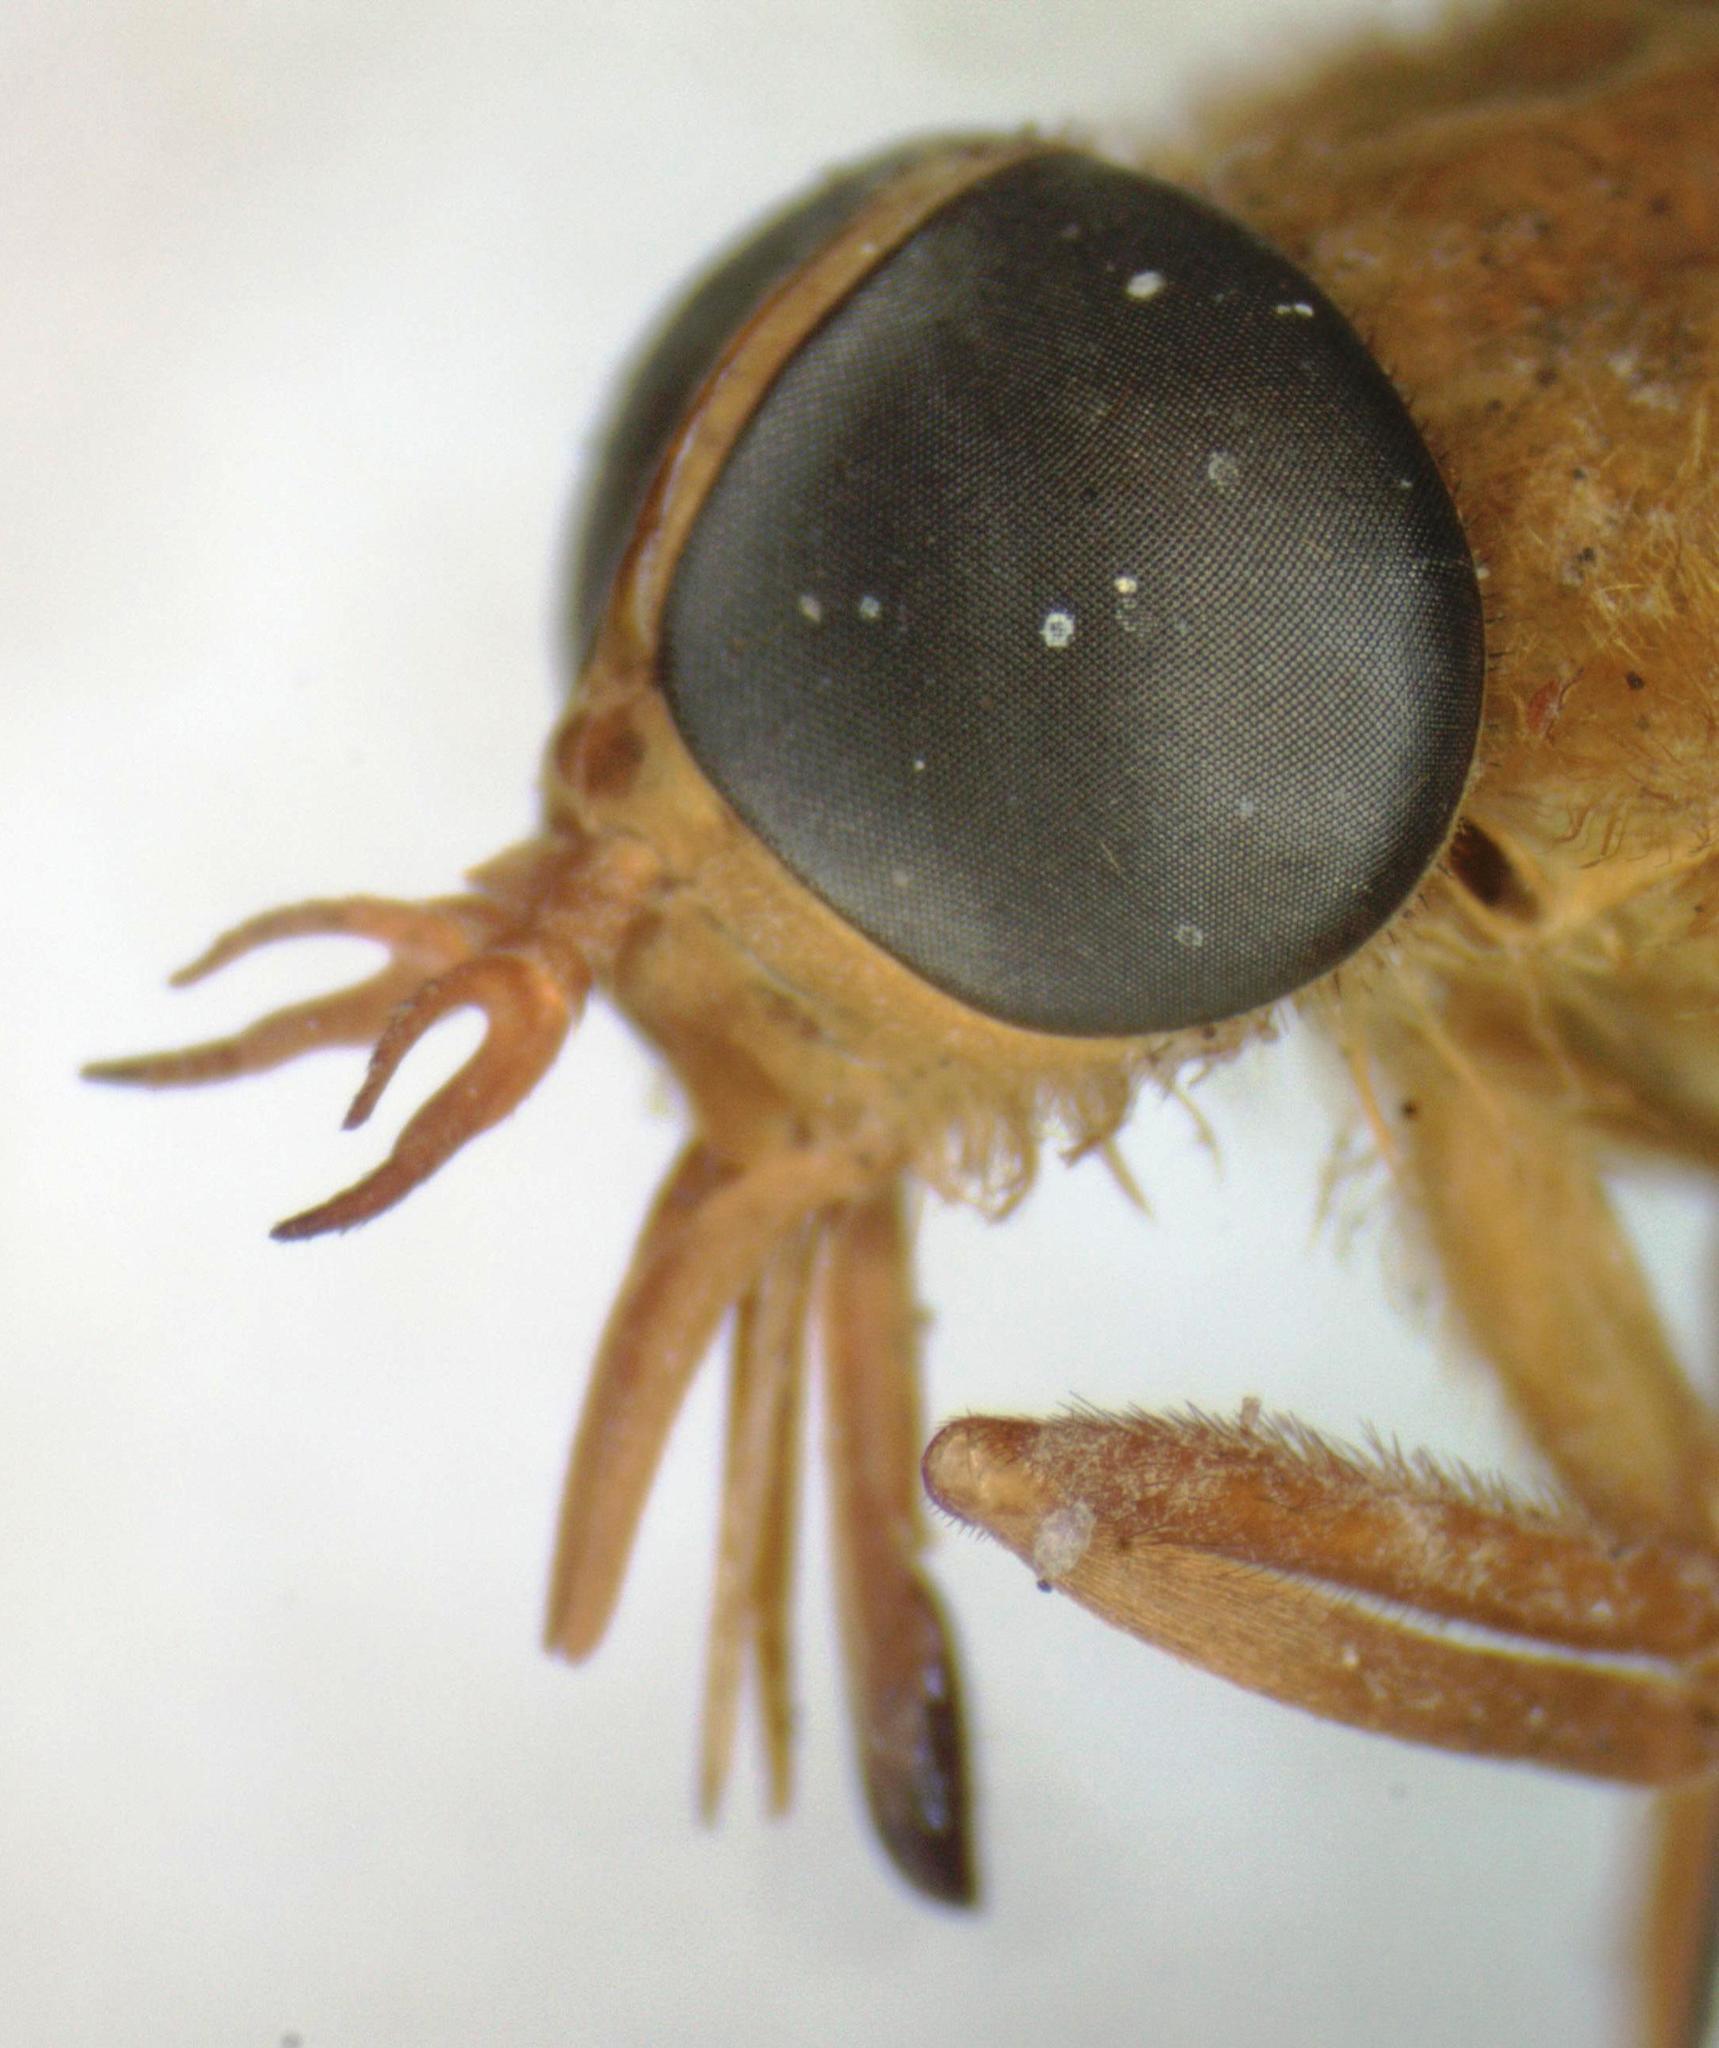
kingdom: Animalia
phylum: Arthropoda
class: Insecta
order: Diptera
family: Tabanidae
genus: Catachlorops
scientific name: Catachlorops fulmineus
